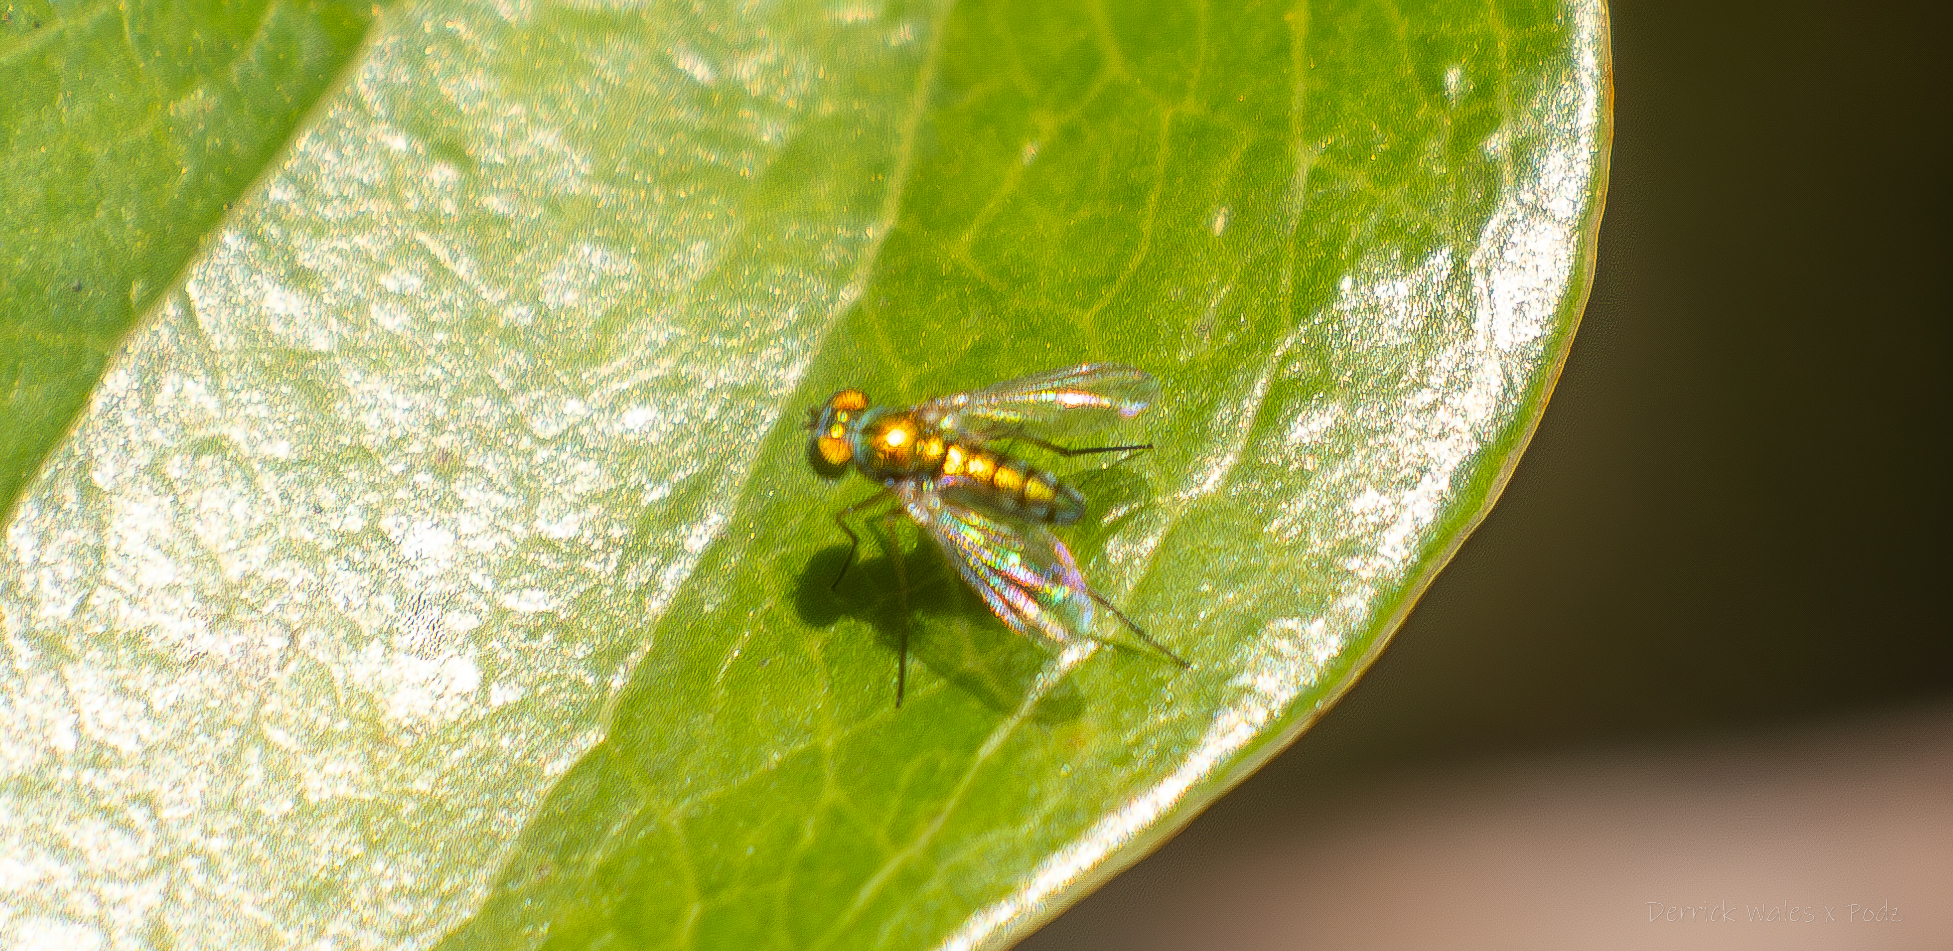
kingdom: Animalia
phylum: Arthropoda
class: Insecta
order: Diptera
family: Dolichopodidae
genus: Condylostylus
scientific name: Condylostylus
